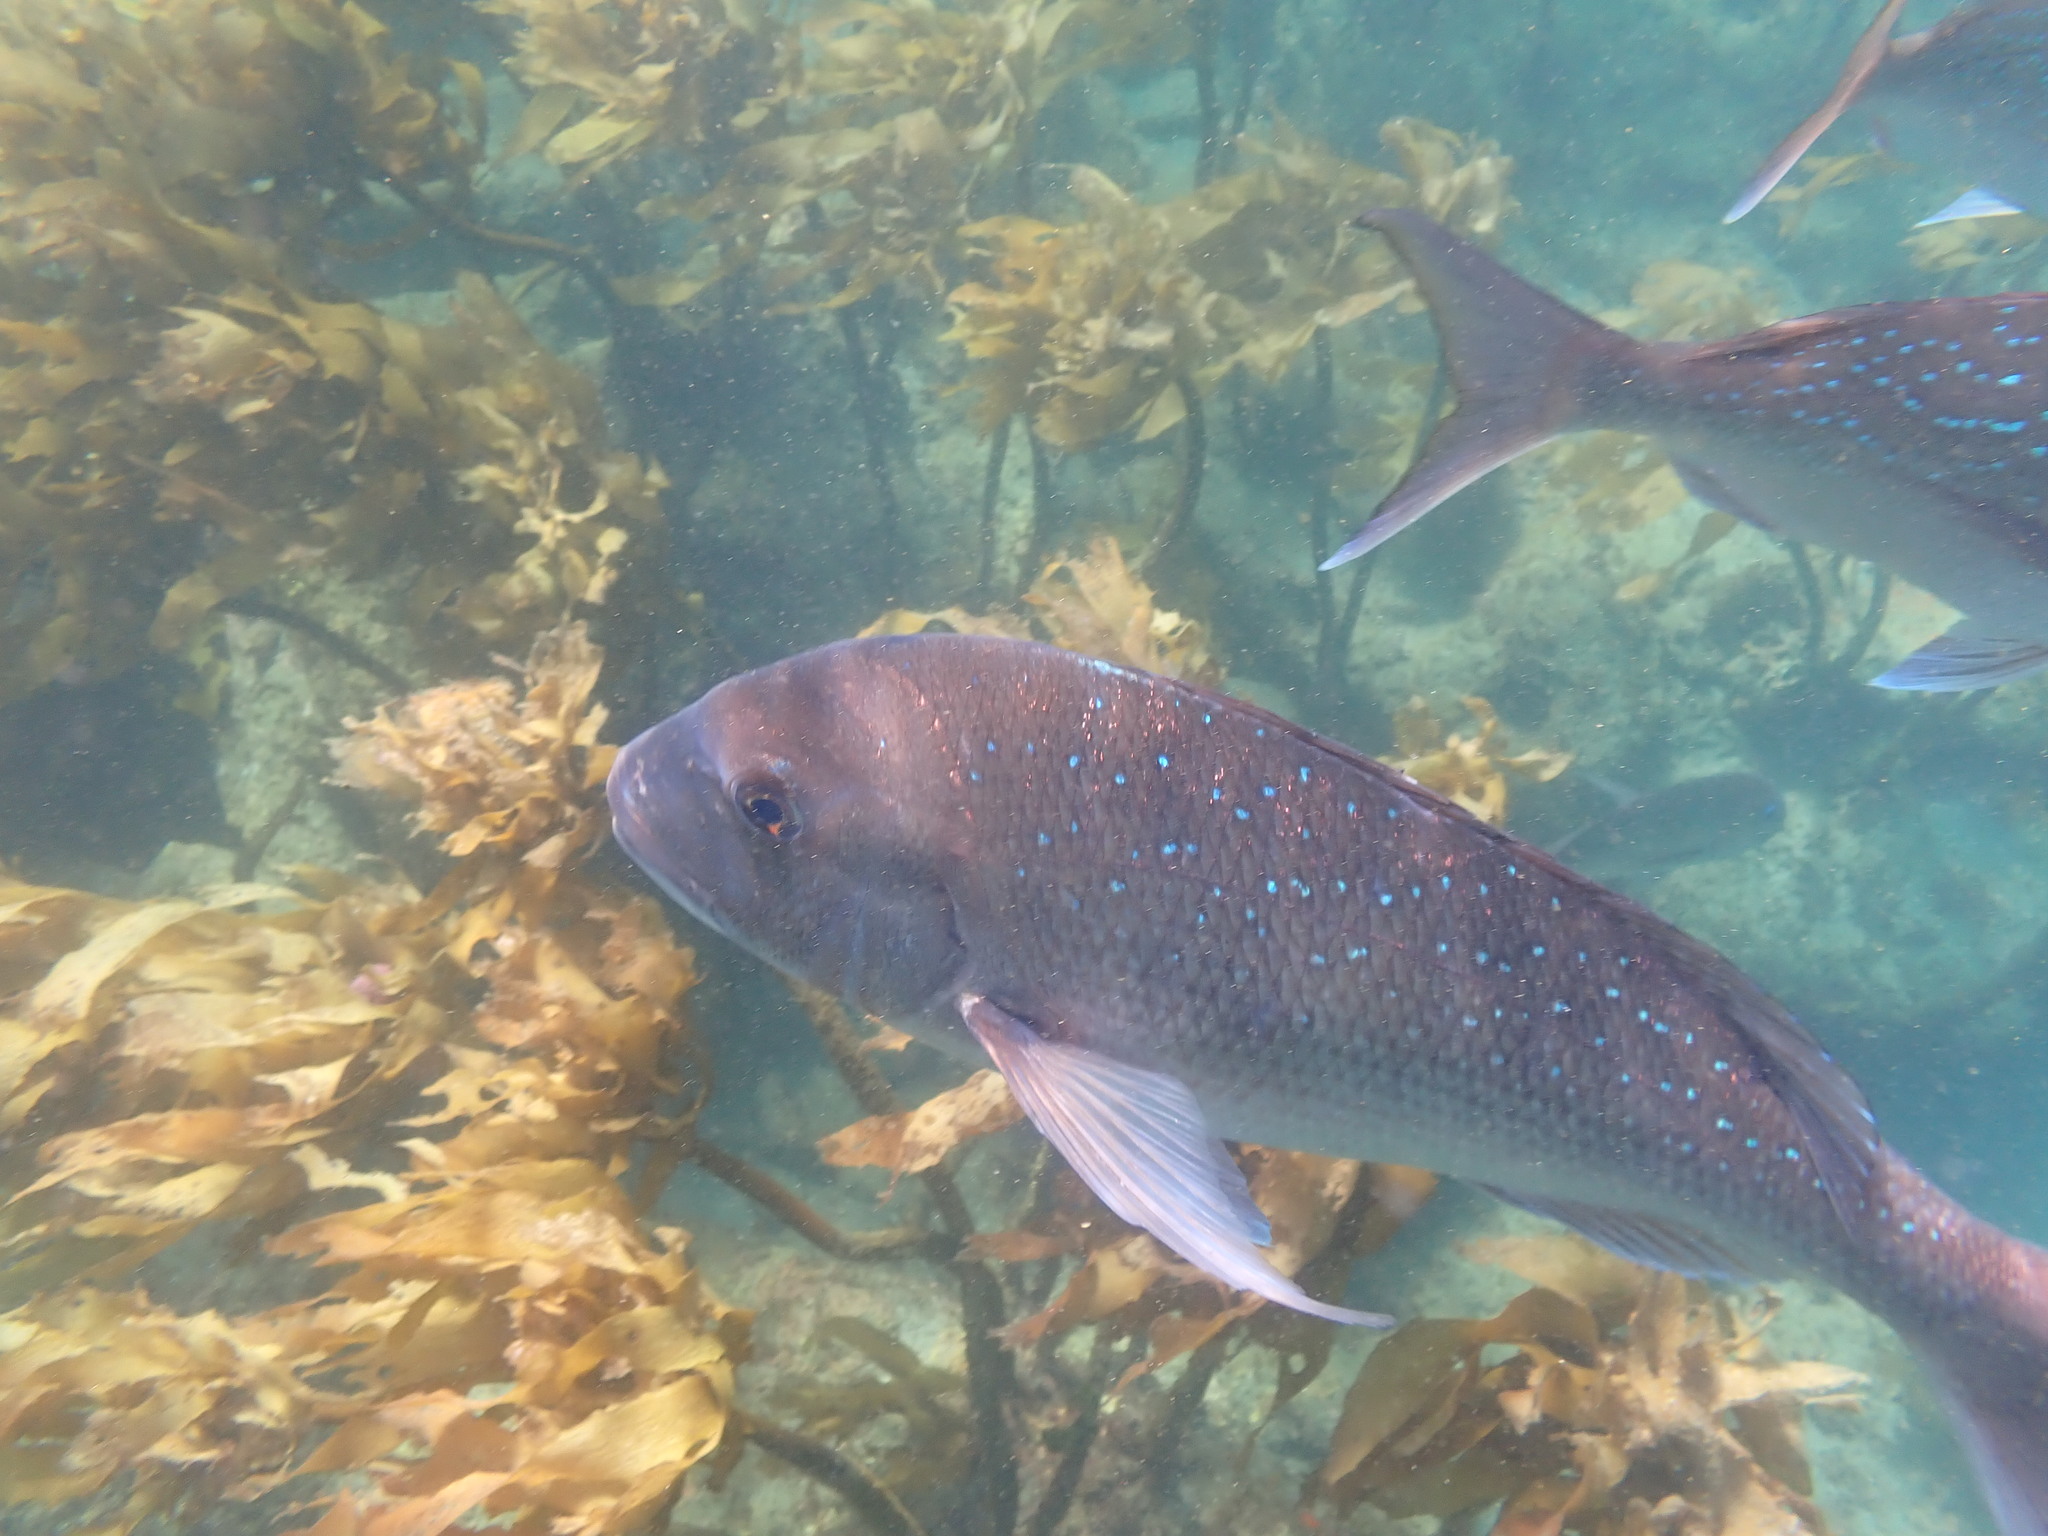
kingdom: Animalia
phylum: Chordata
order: Perciformes
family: Sparidae
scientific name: Sparidae
